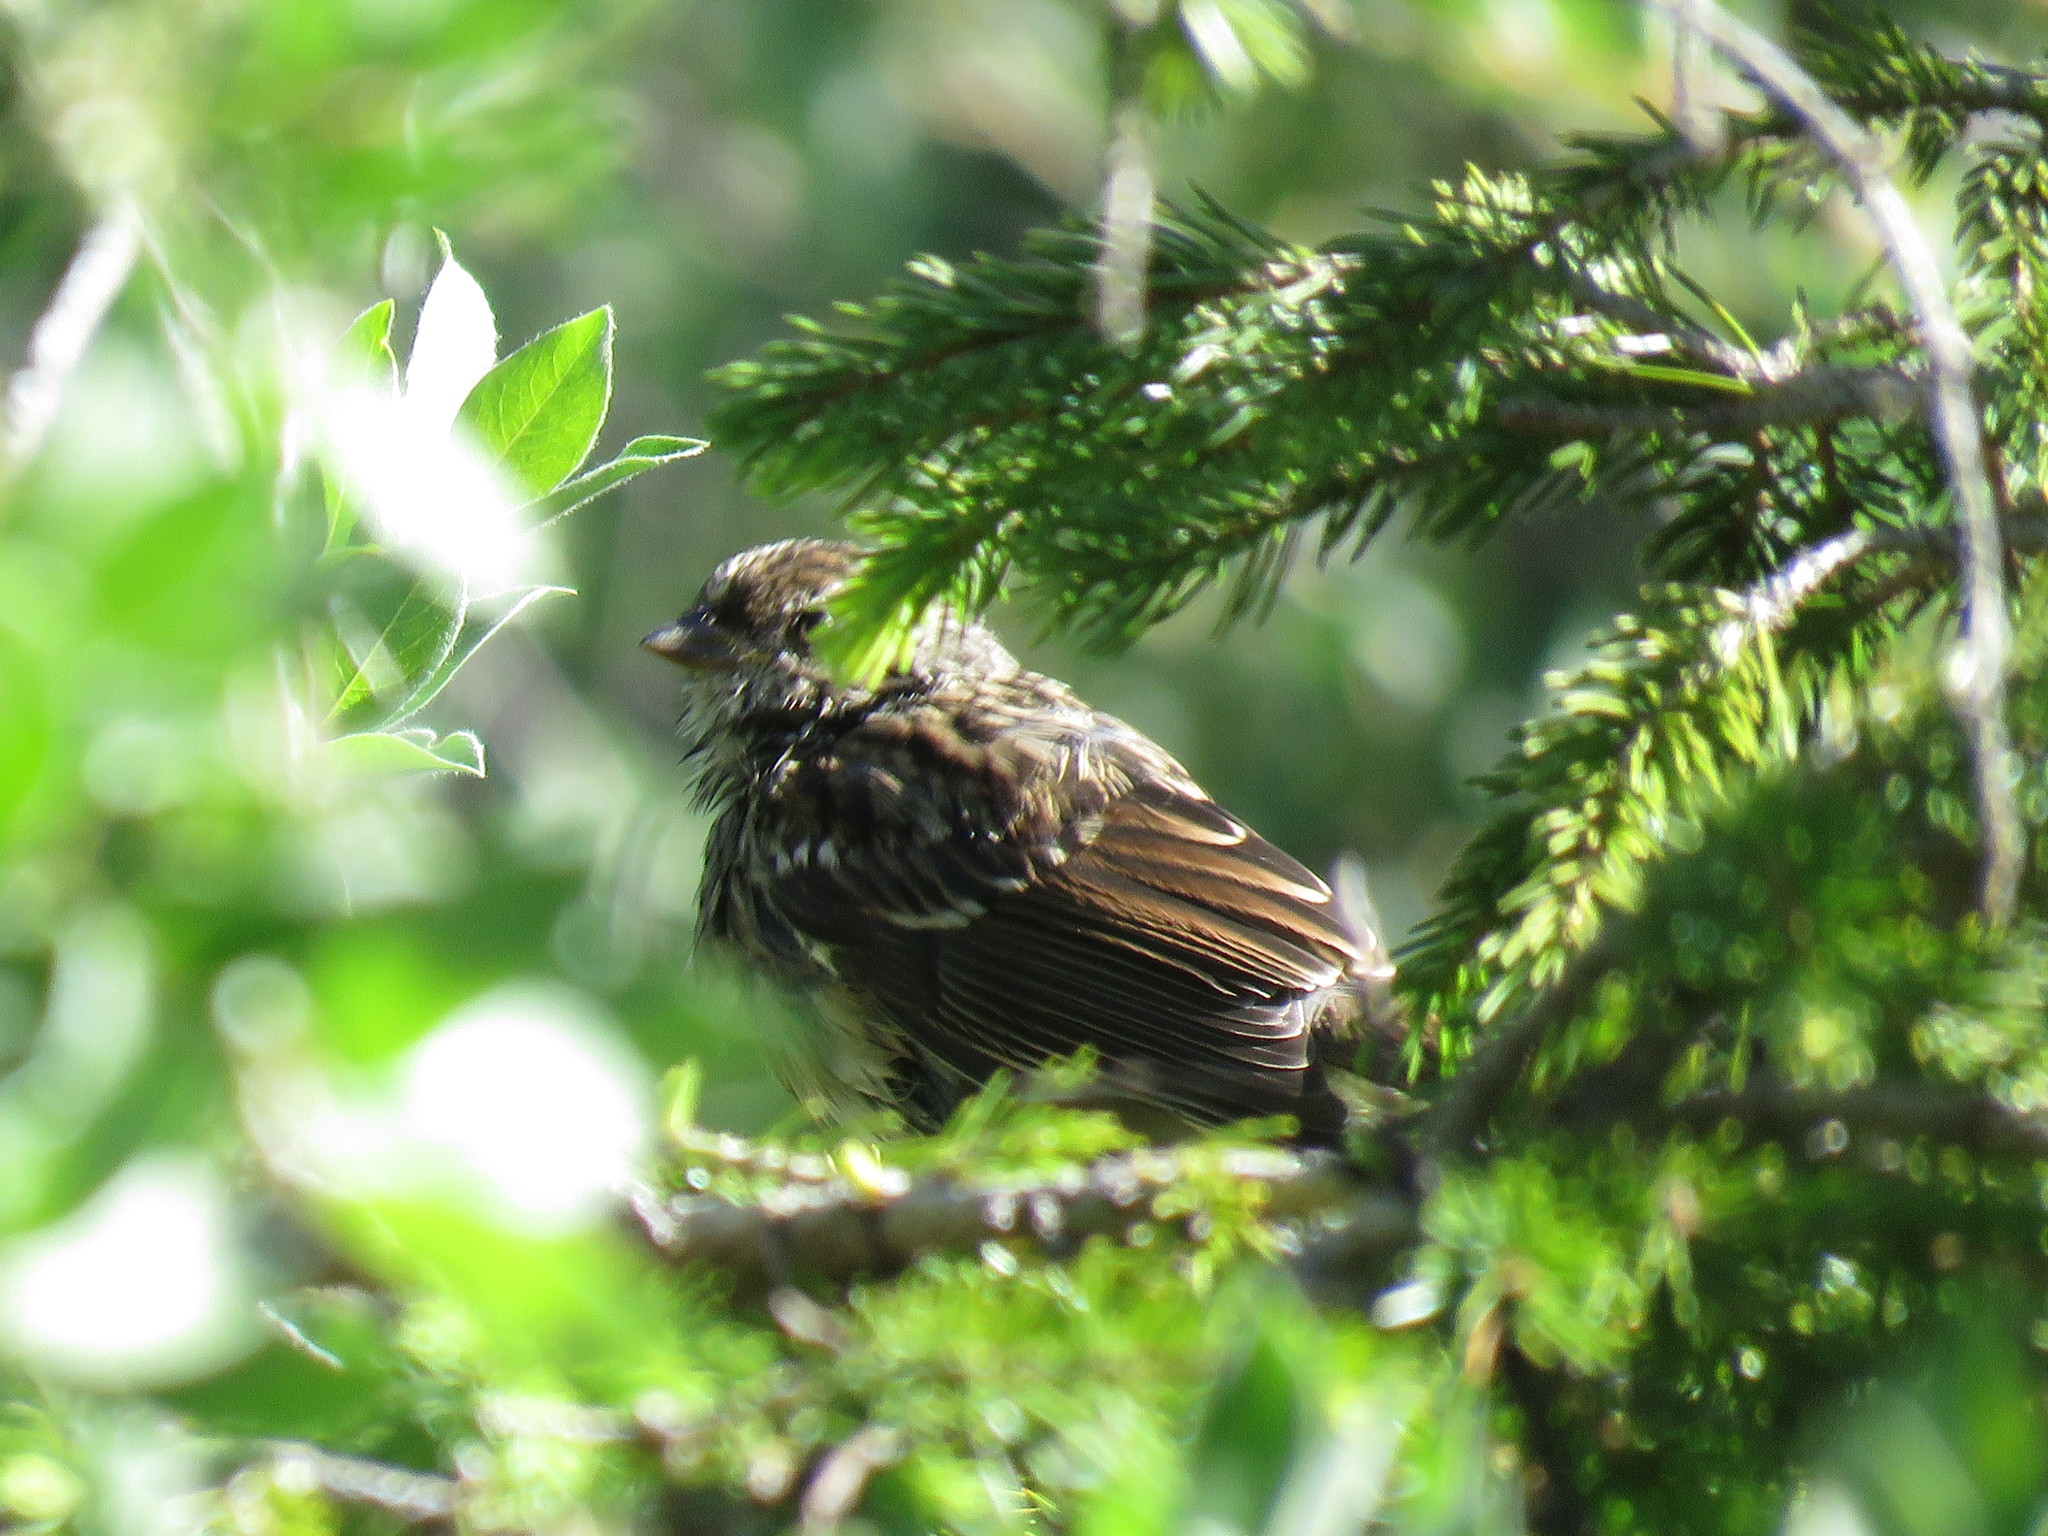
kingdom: Animalia
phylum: Chordata
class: Aves
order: Passeriformes
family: Passerellidae
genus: Zonotrichia
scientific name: Zonotrichia leucophrys
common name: White-crowned sparrow
